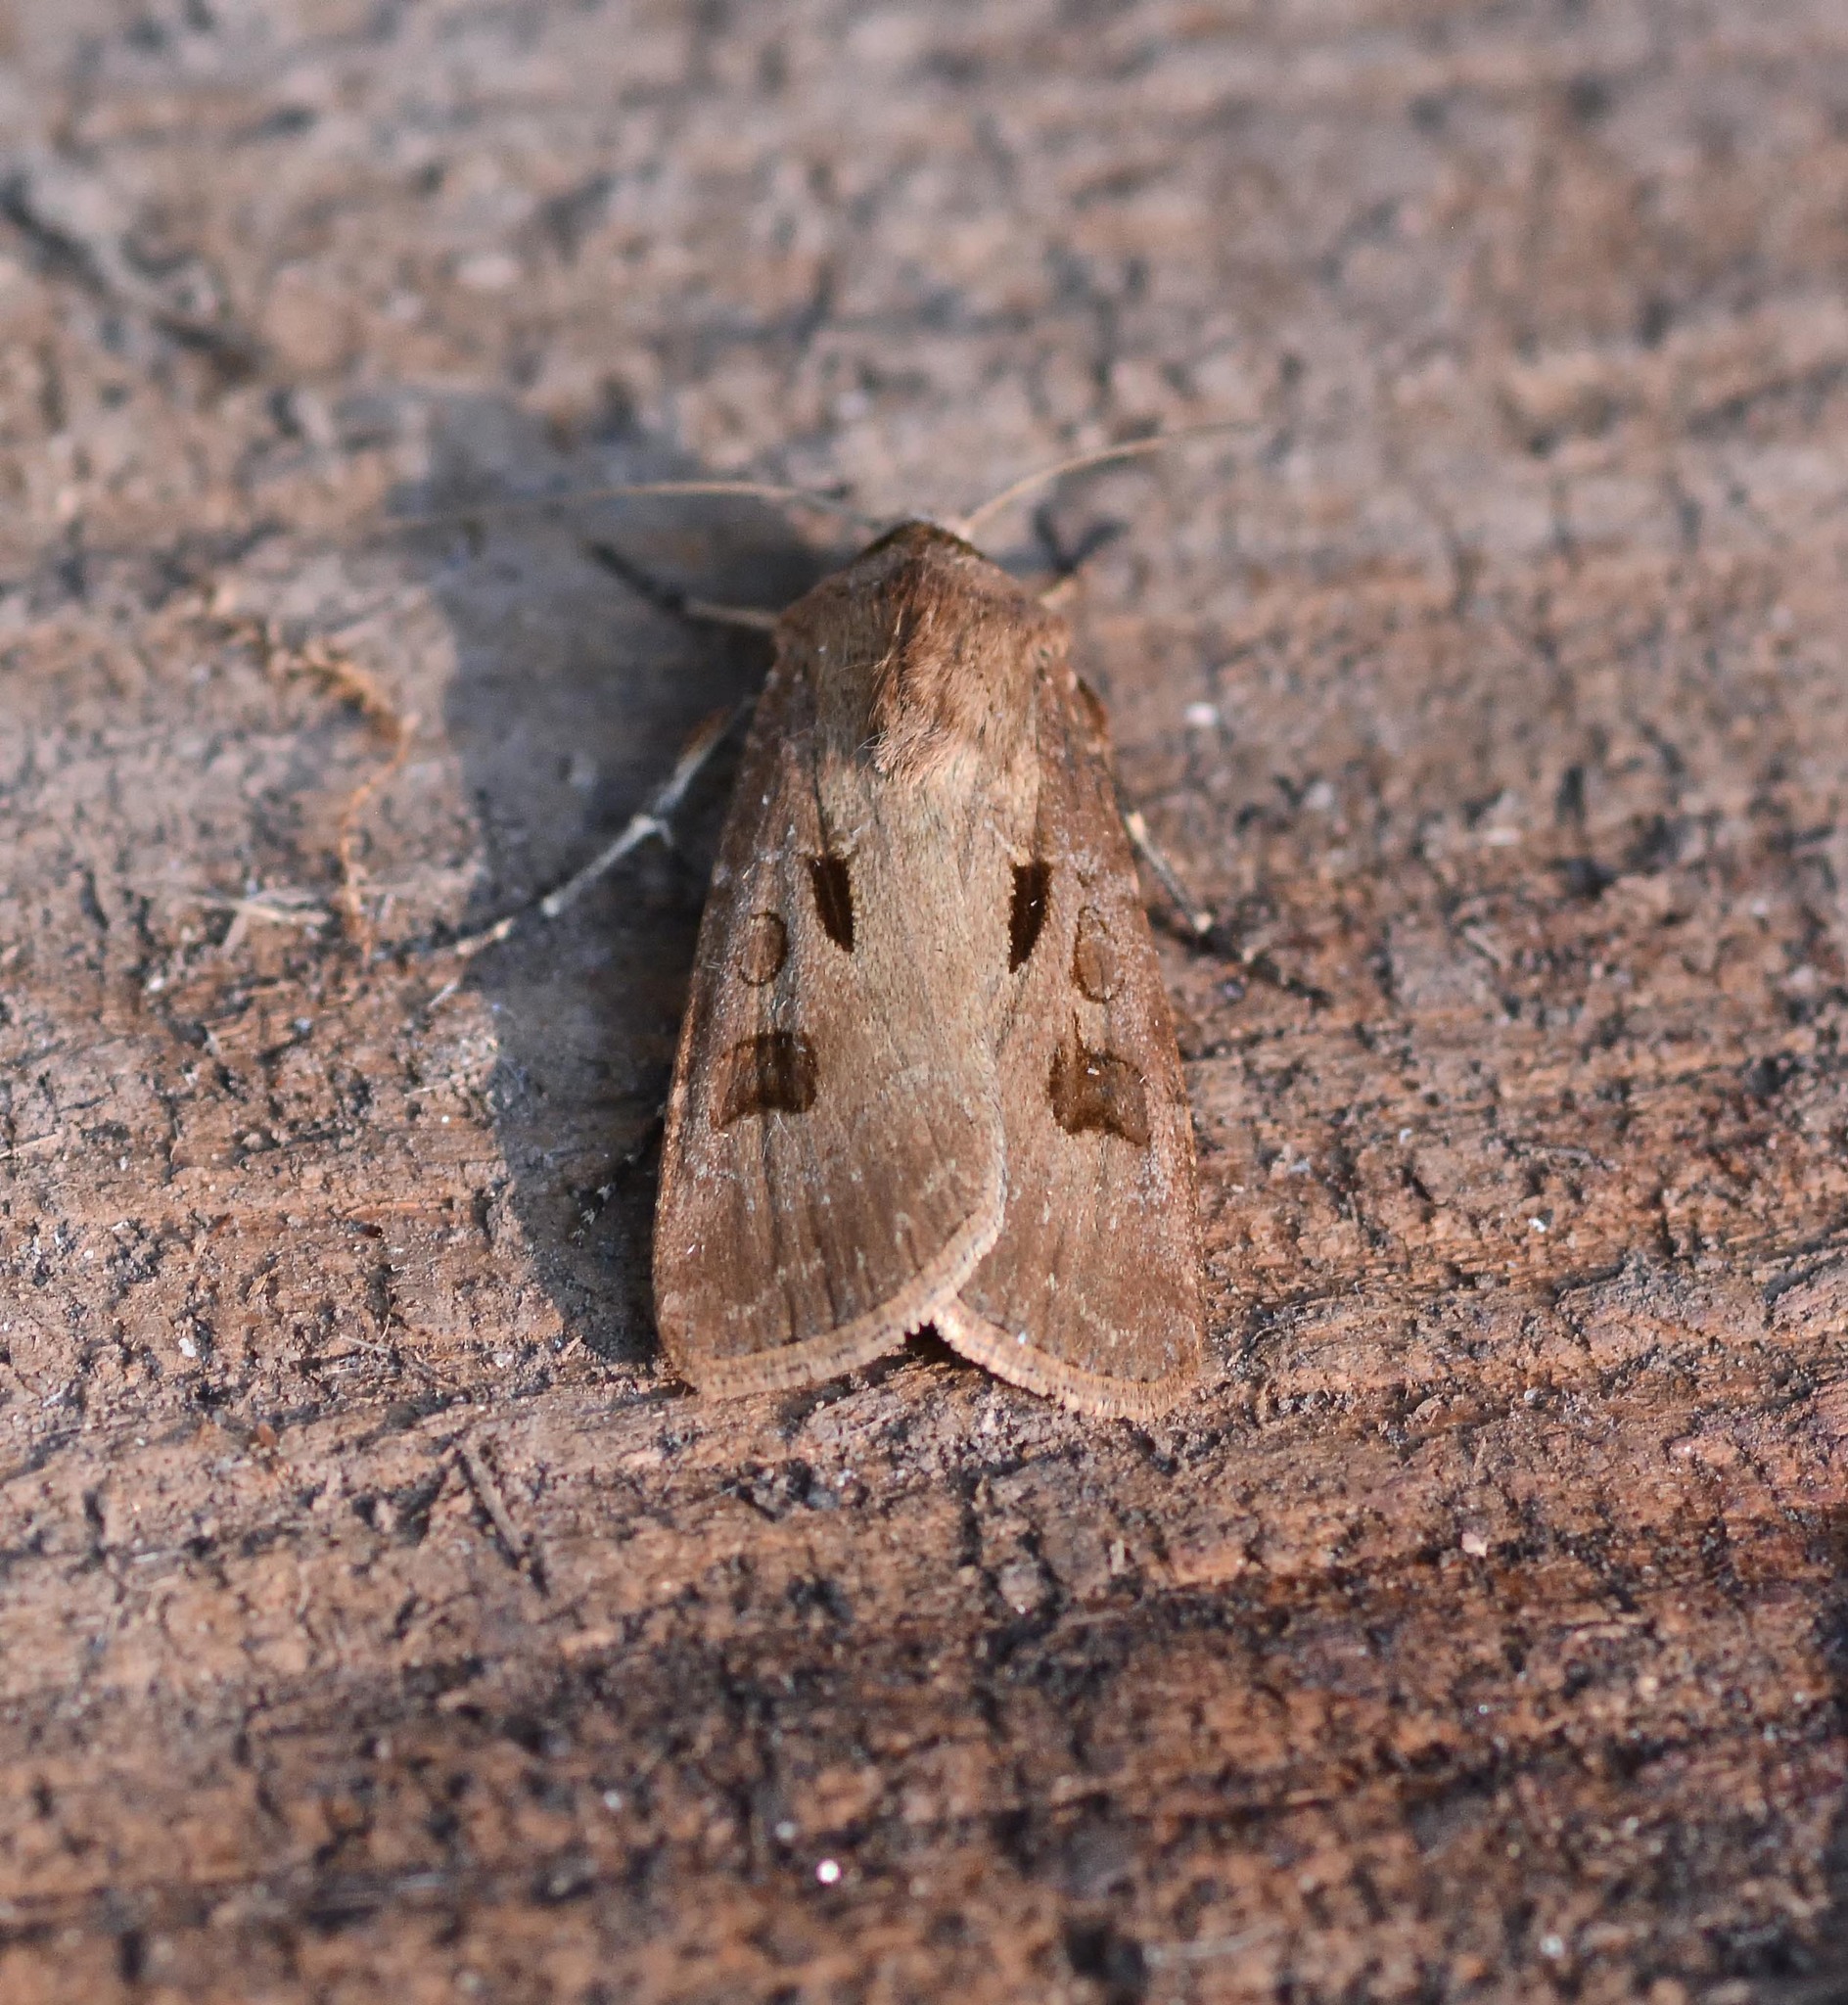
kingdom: Animalia
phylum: Arthropoda
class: Insecta
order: Lepidoptera
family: Noctuidae
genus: Agrotis
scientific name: Agrotis exclamationis
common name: Heart and dart
